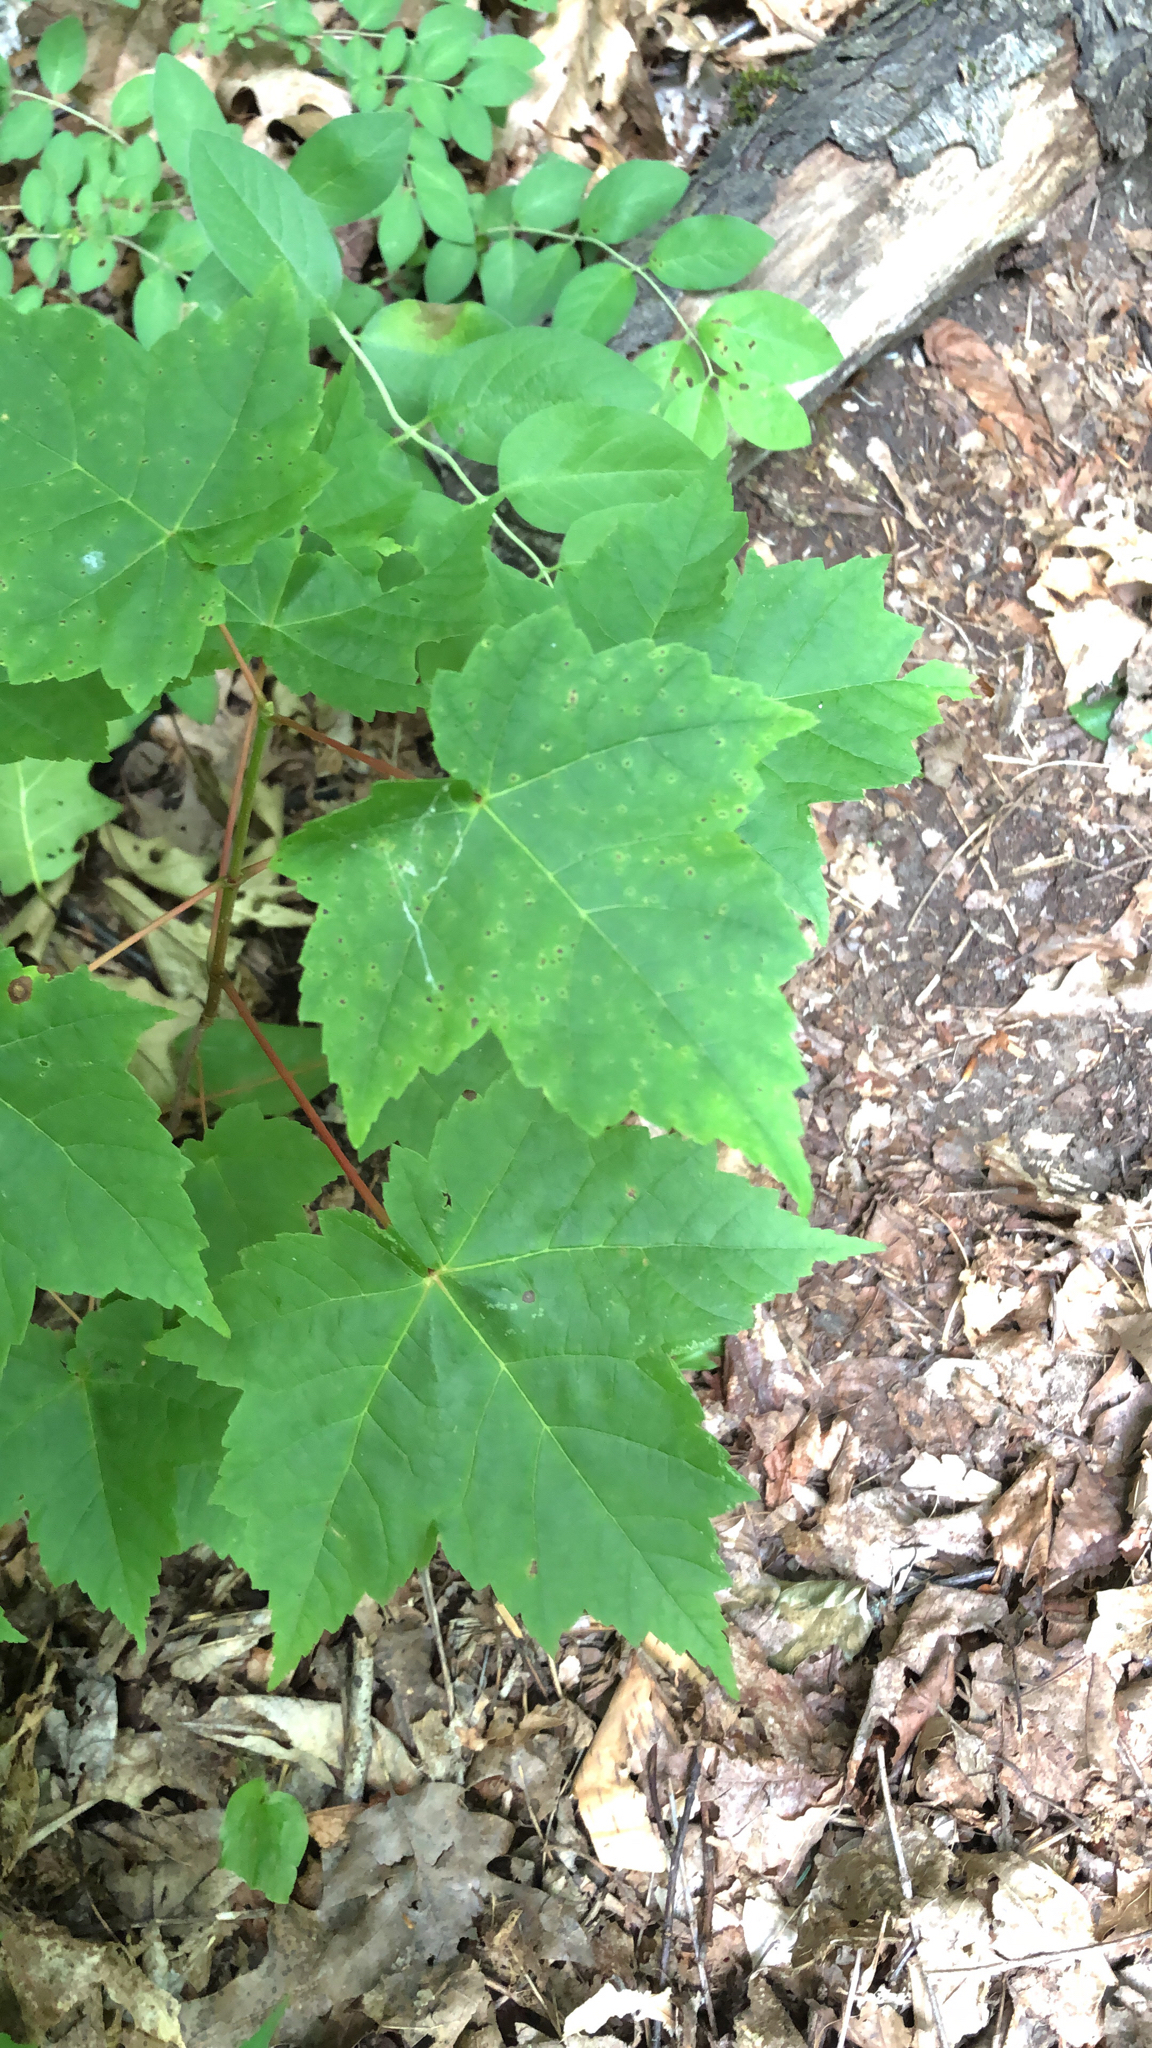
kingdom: Plantae
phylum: Tracheophyta
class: Magnoliopsida
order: Sapindales
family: Sapindaceae
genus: Acer
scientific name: Acer rubrum
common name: Red maple
